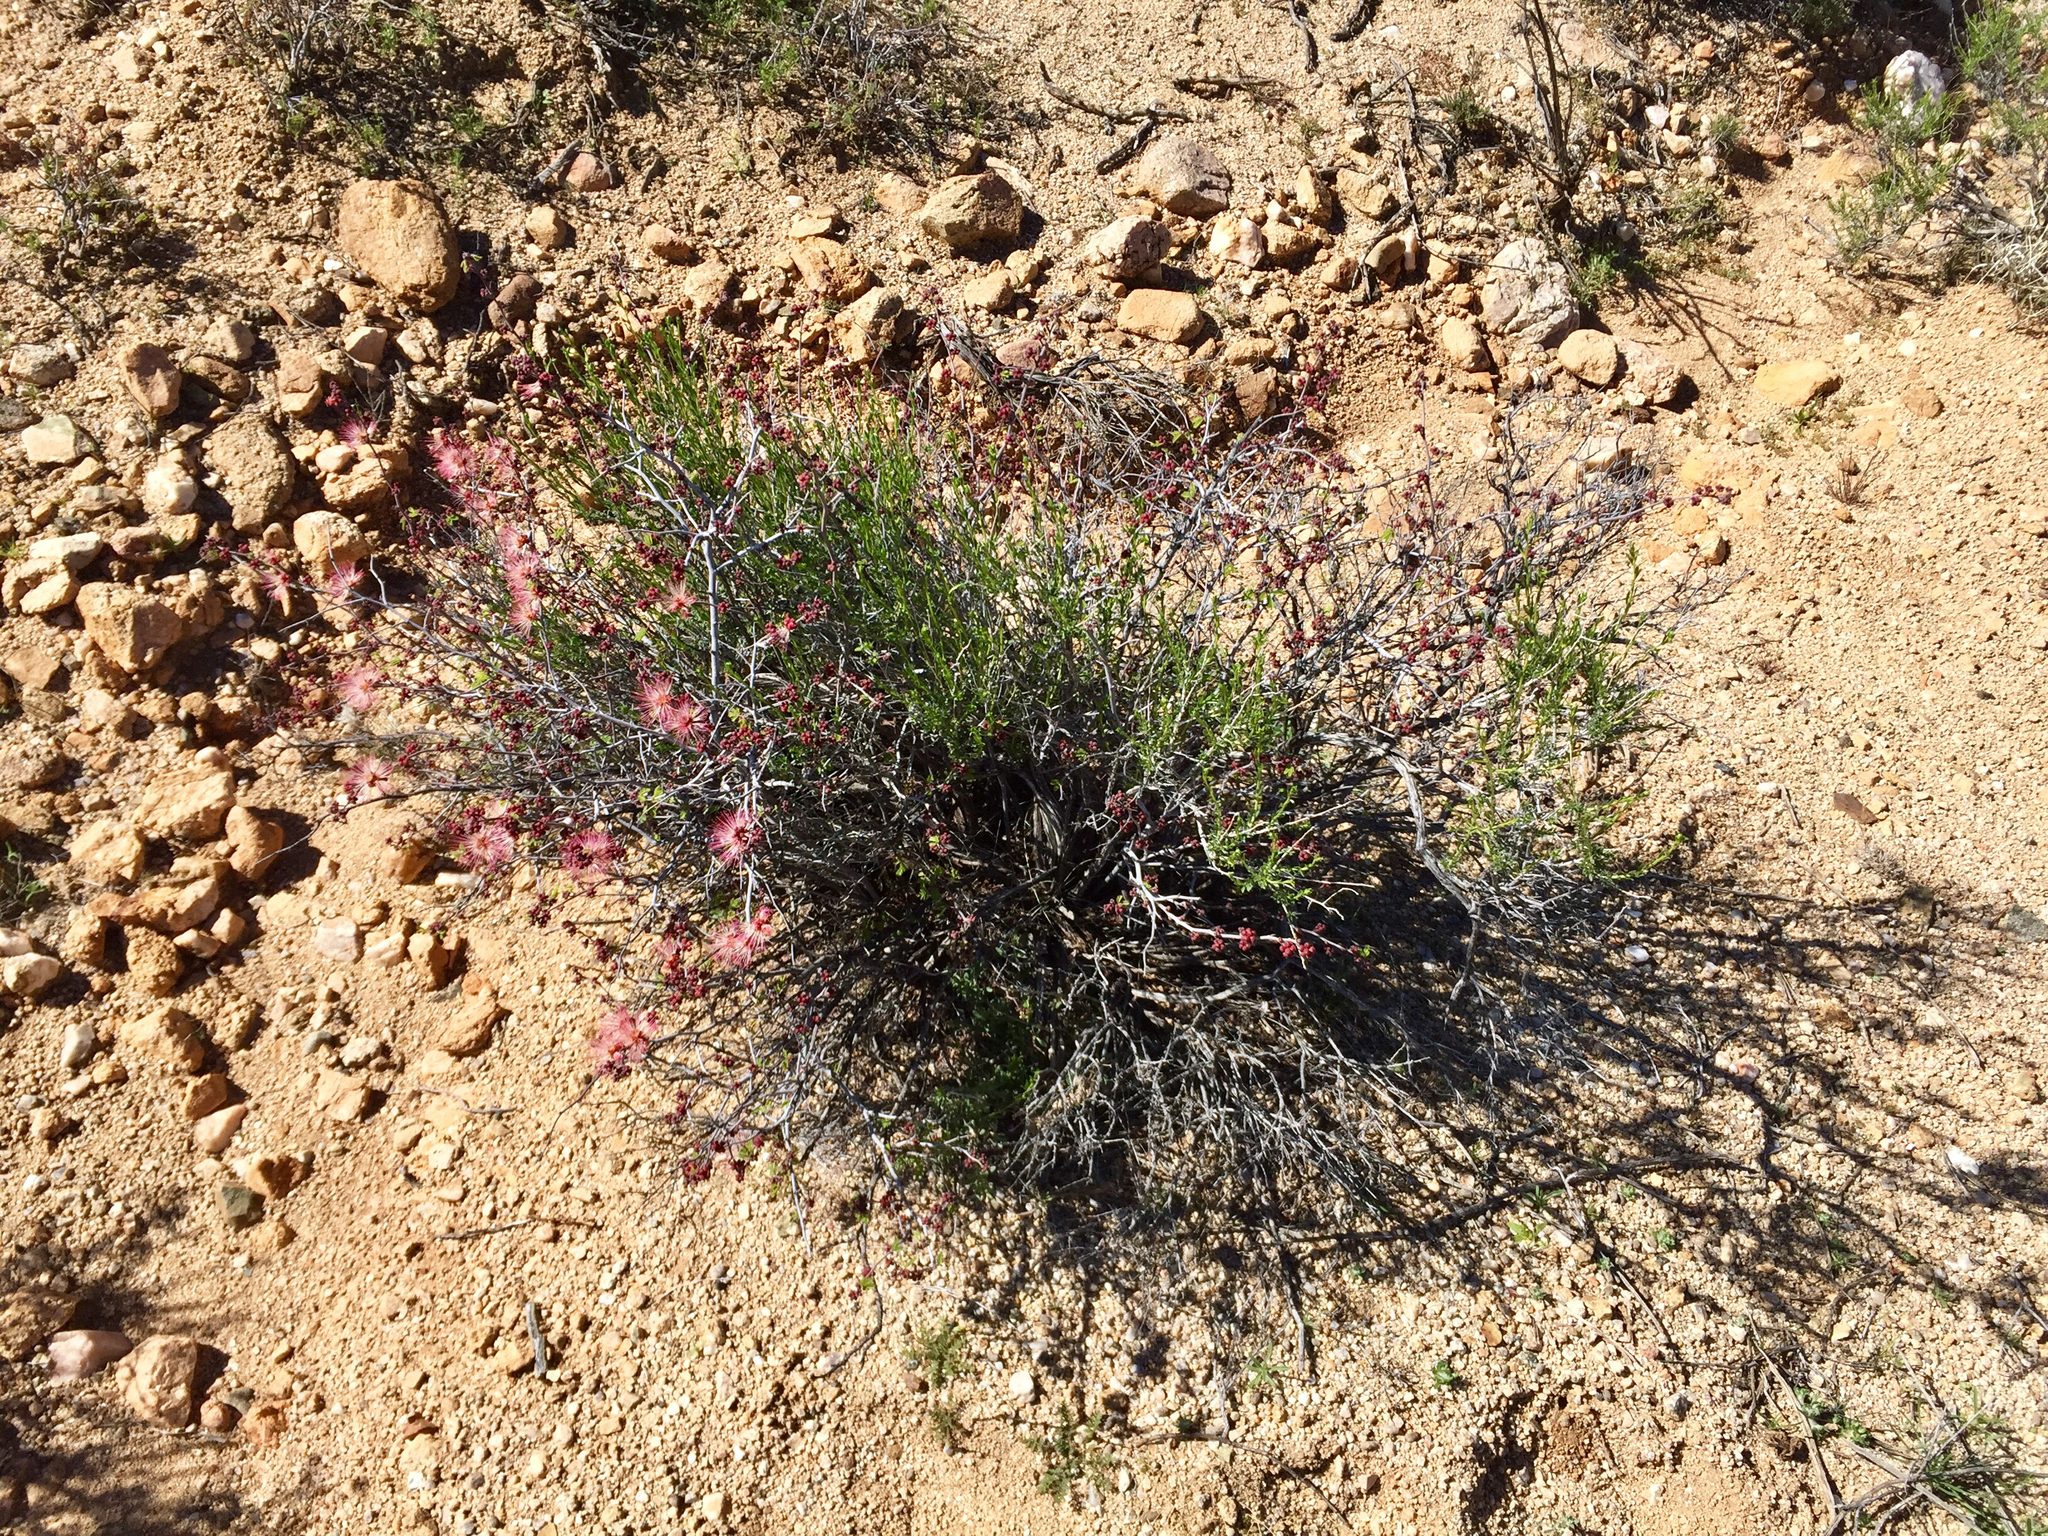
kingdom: Plantae
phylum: Tracheophyta
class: Magnoliopsida
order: Fabales
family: Fabaceae
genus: Calliandra
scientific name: Calliandra eriophylla
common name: Fairy-duster
